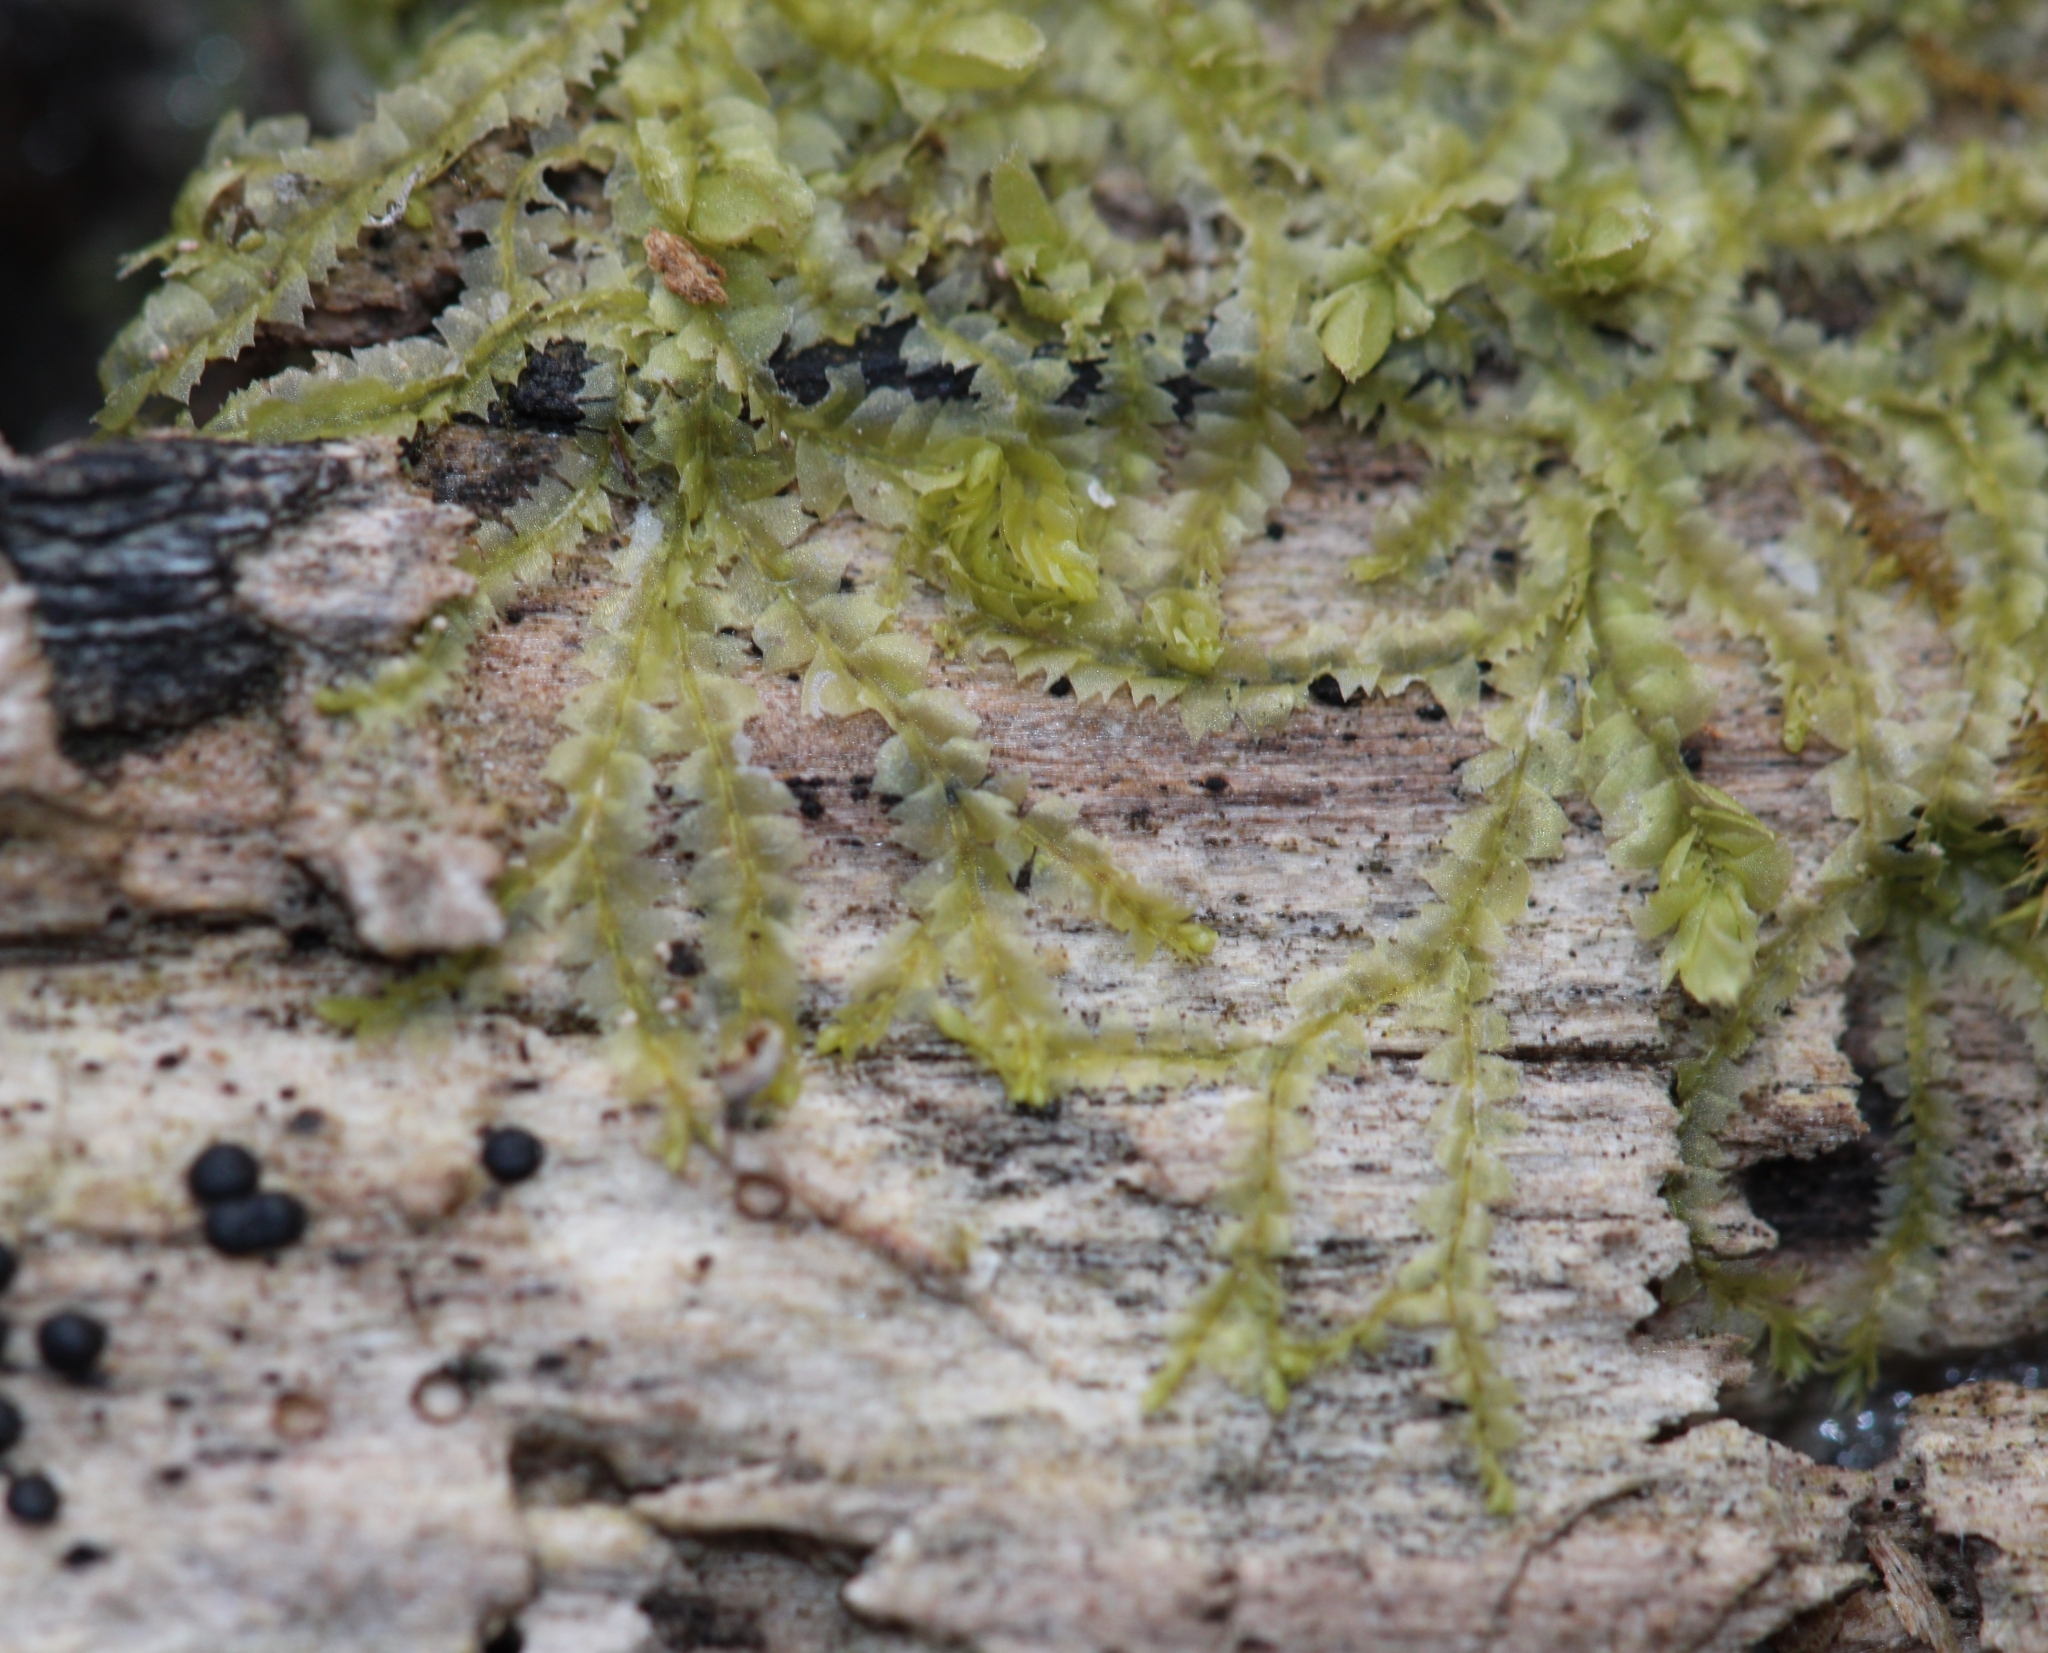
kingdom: Plantae
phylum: Marchantiophyta
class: Jungermanniopsida
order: Jungermanniales
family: Lophocoleaceae
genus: Lophocolea
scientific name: Lophocolea heterophylla
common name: Variable-leaved crestwort
